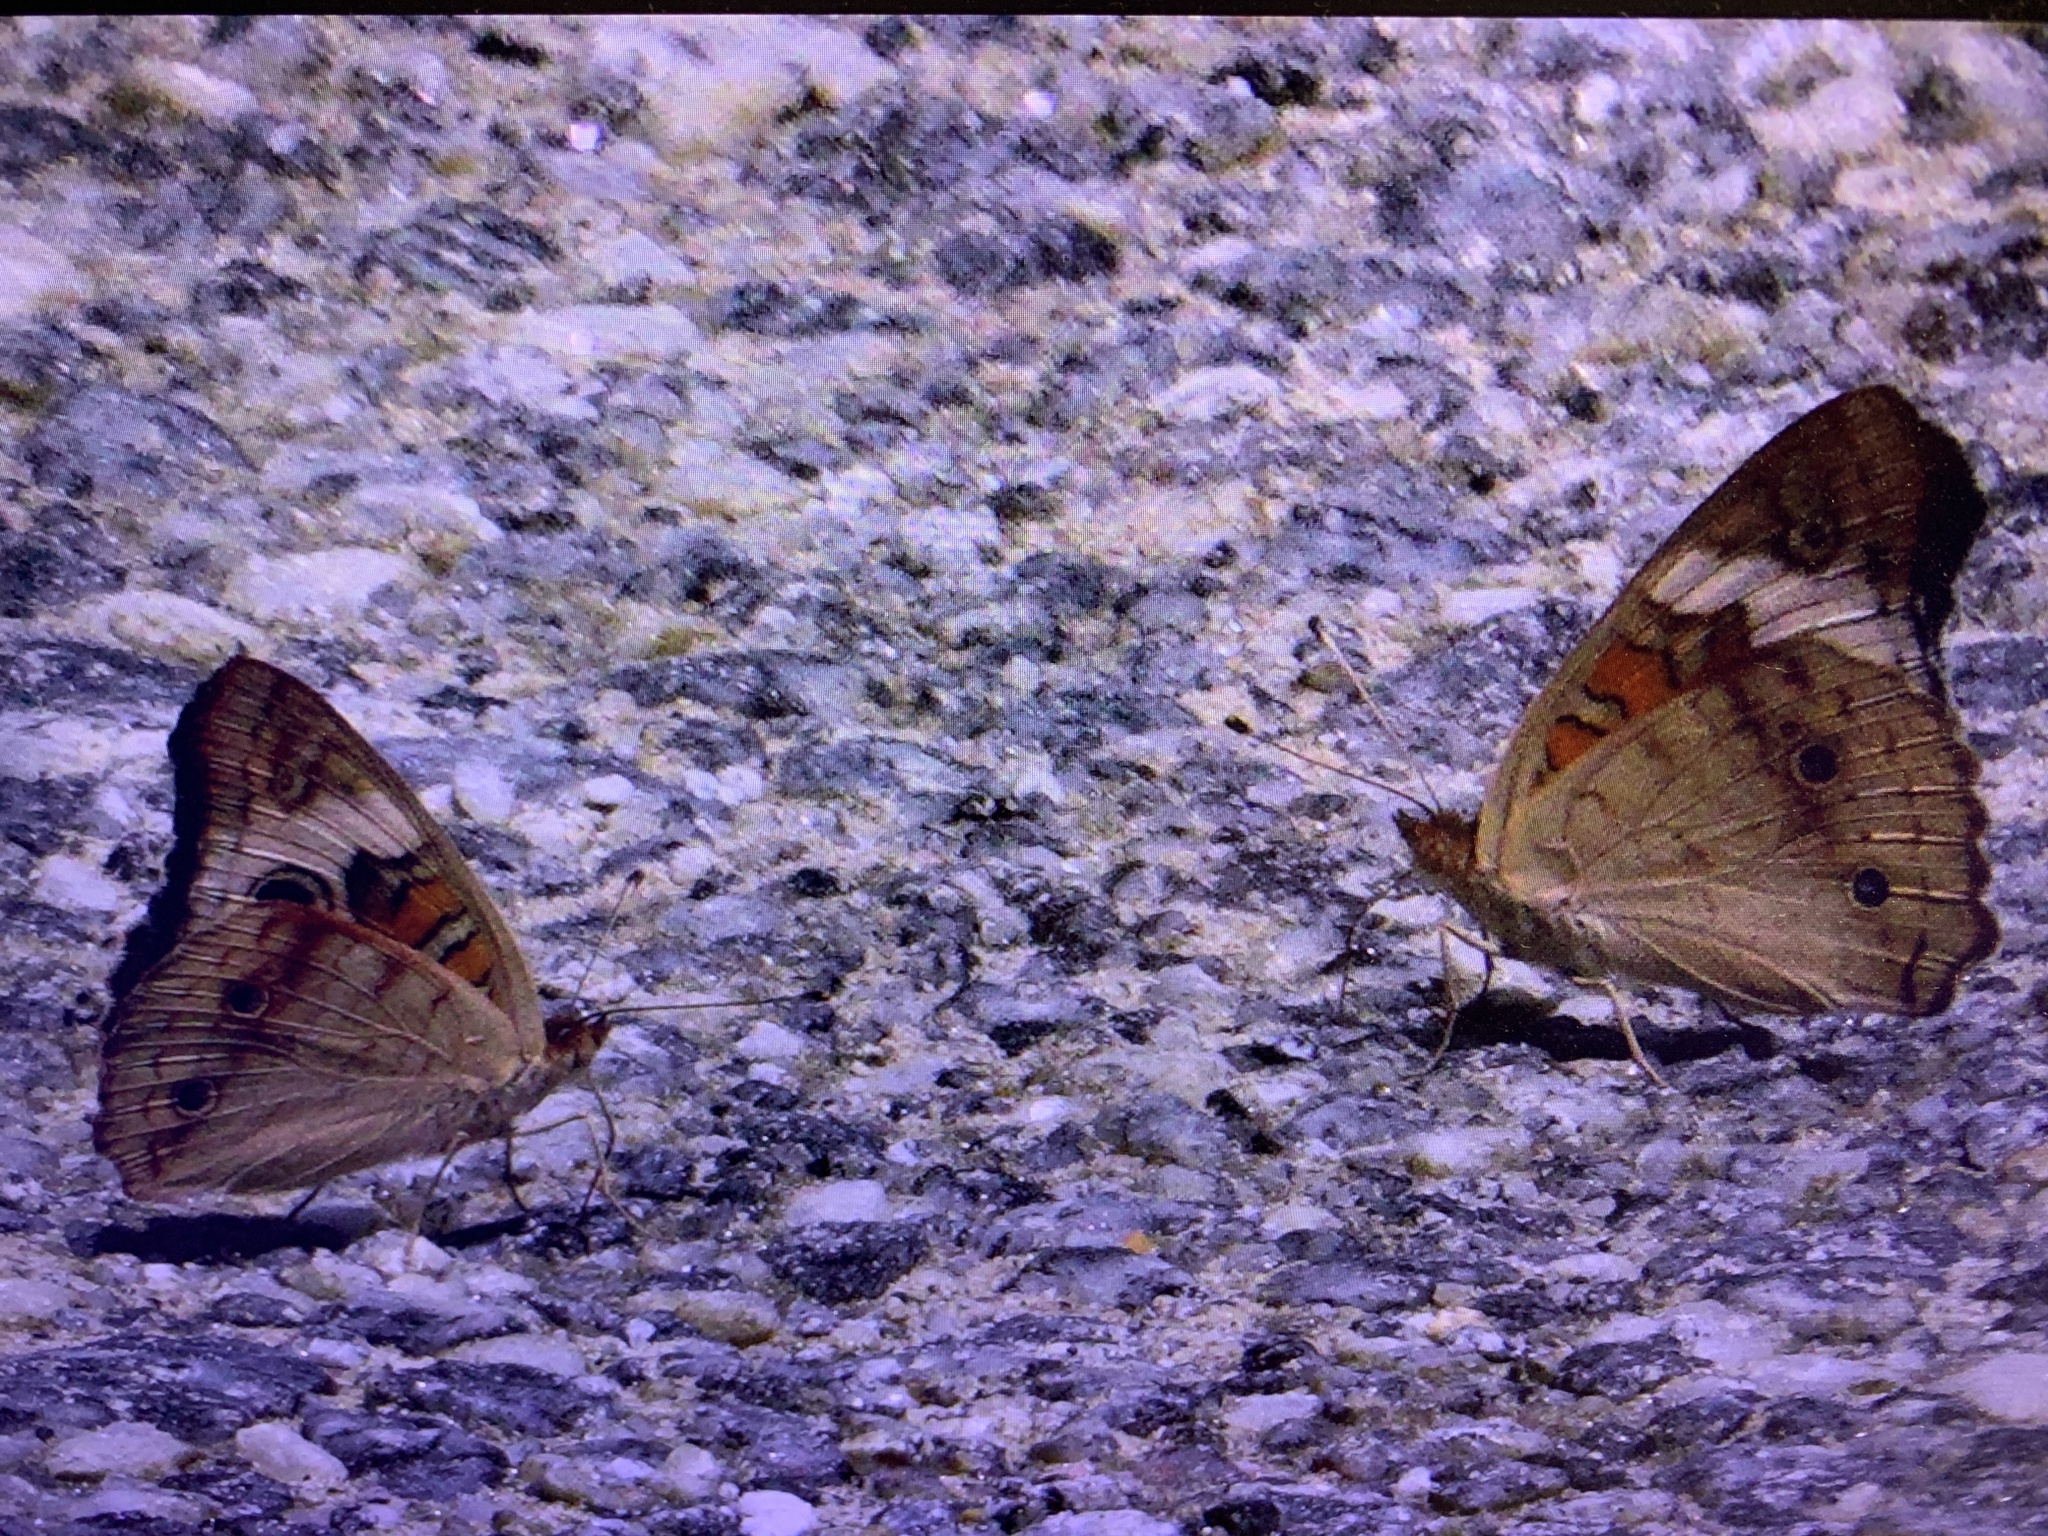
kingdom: Animalia
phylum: Arthropoda
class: Insecta
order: Lepidoptera
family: Nymphalidae
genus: Junonia
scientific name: Junonia coenia
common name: Common buckeye
